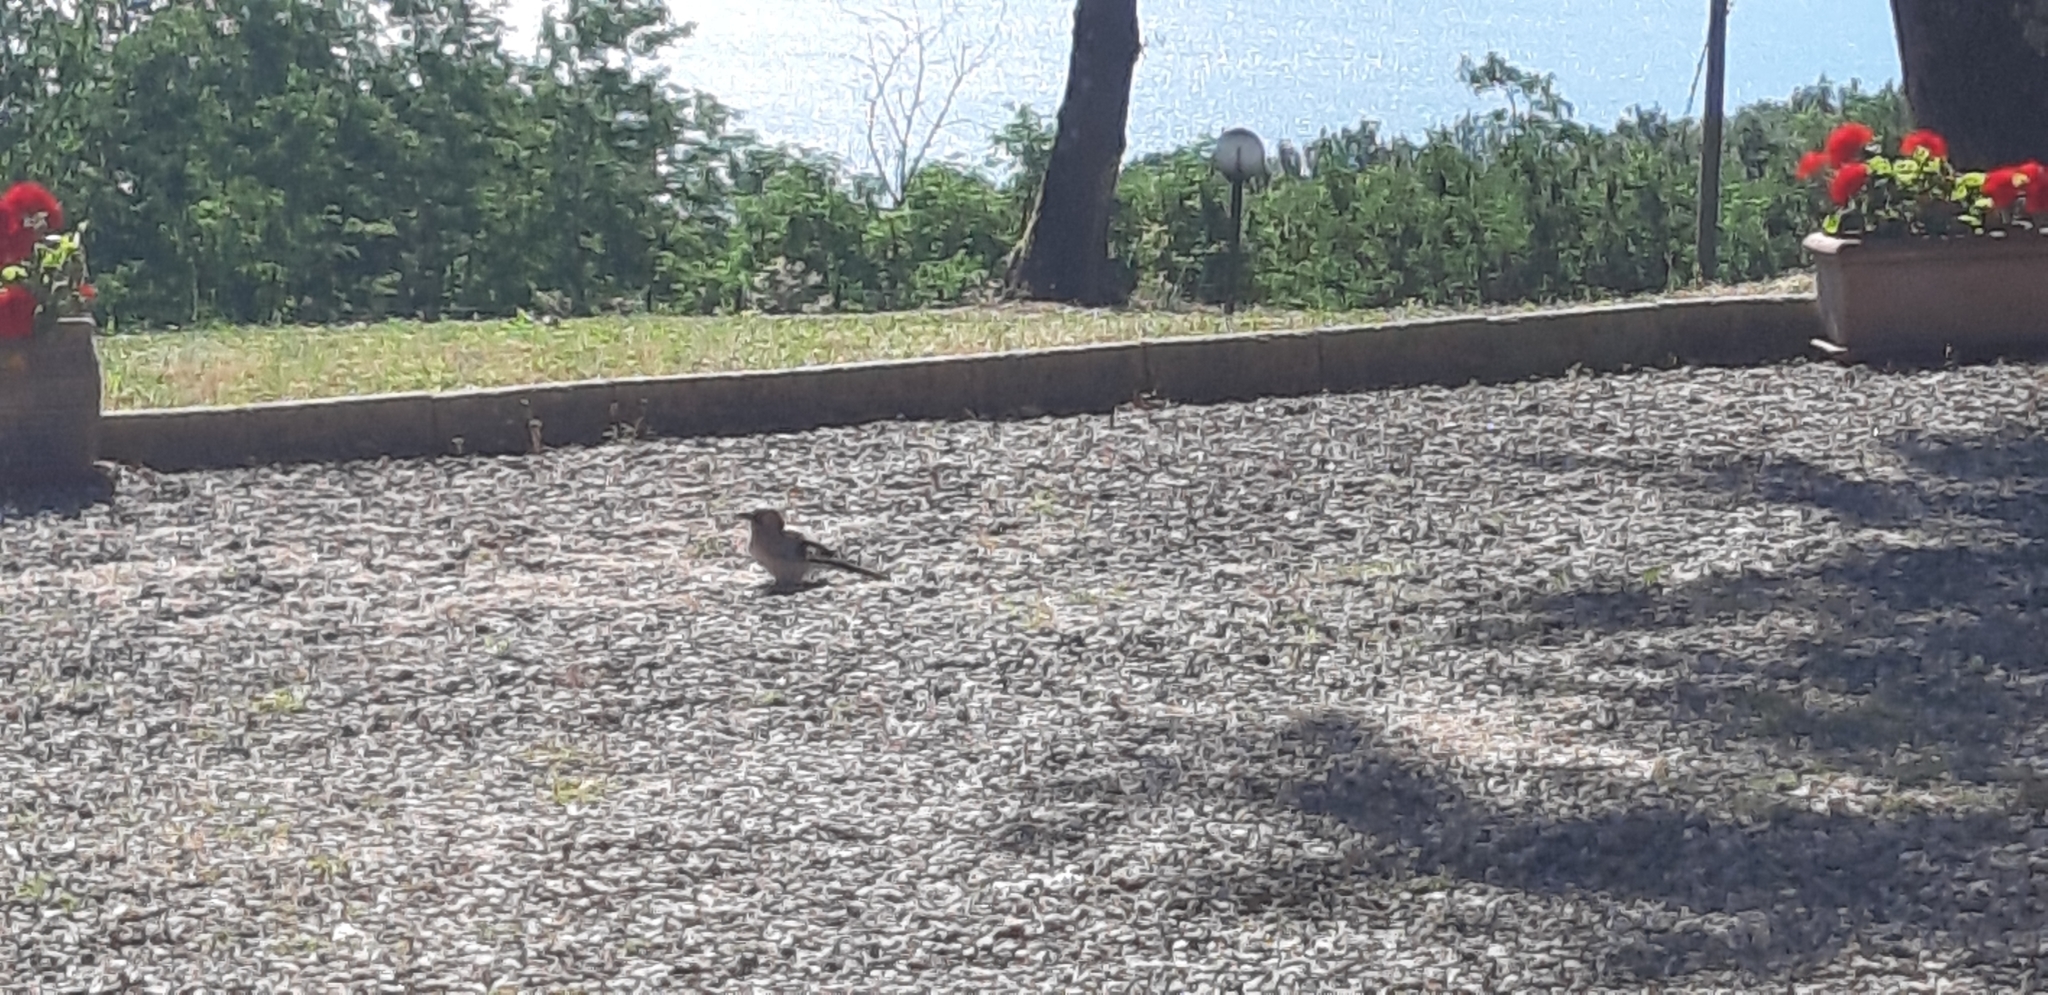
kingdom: Animalia
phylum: Chordata
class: Aves
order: Passeriformes
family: Corvidae
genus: Garrulus
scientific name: Garrulus glandarius
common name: Eurasian jay
